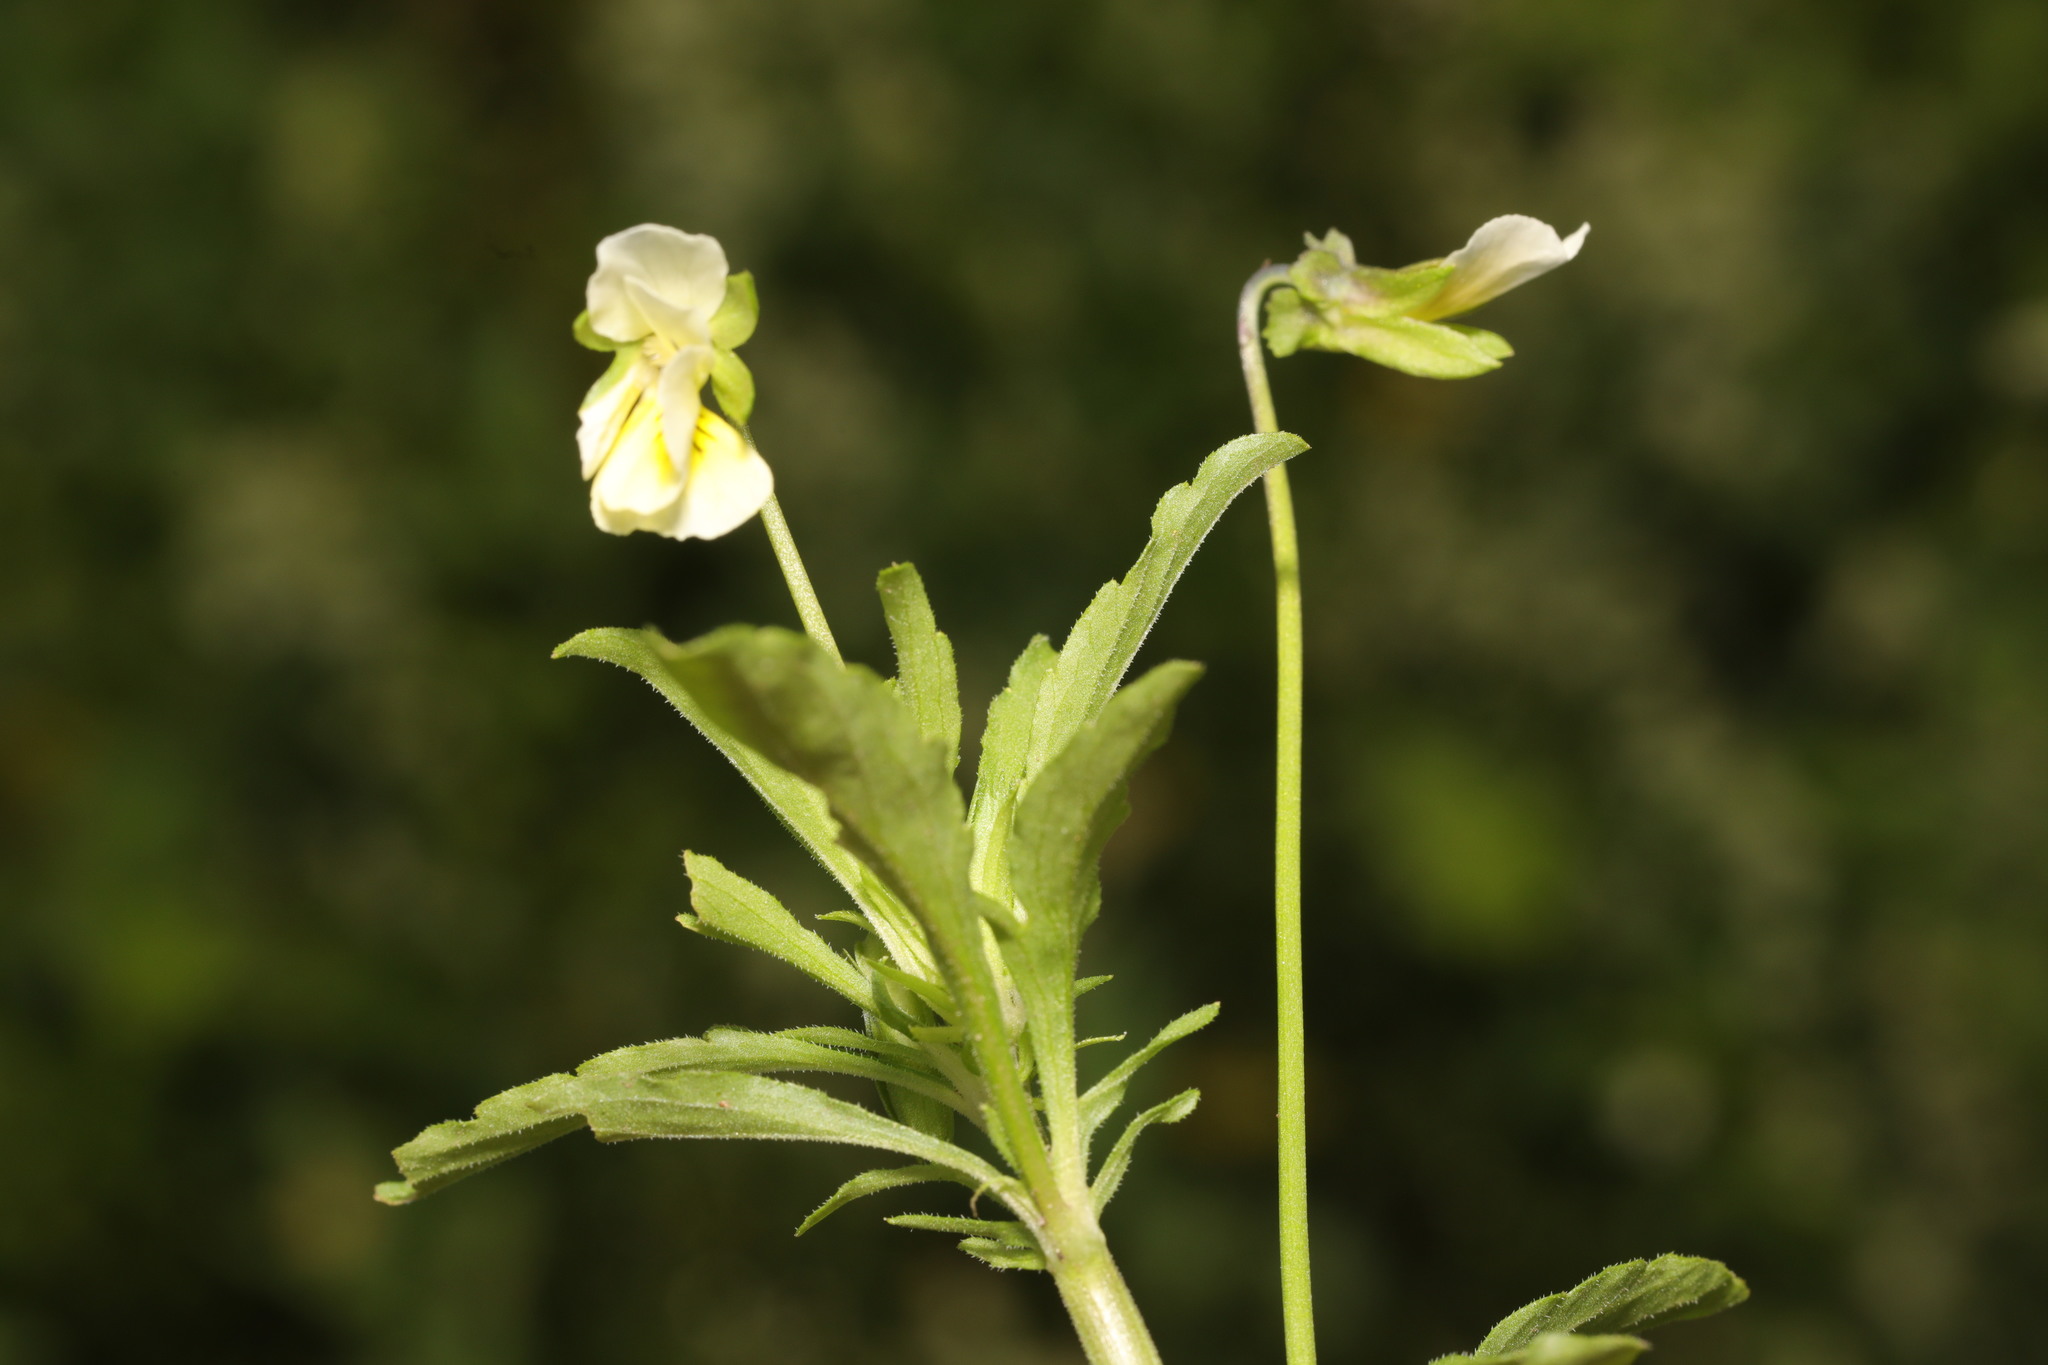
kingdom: Plantae
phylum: Tracheophyta
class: Magnoliopsida
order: Malpighiales
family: Violaceae
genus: Viola
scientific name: Viola arvensis
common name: Field pansy
